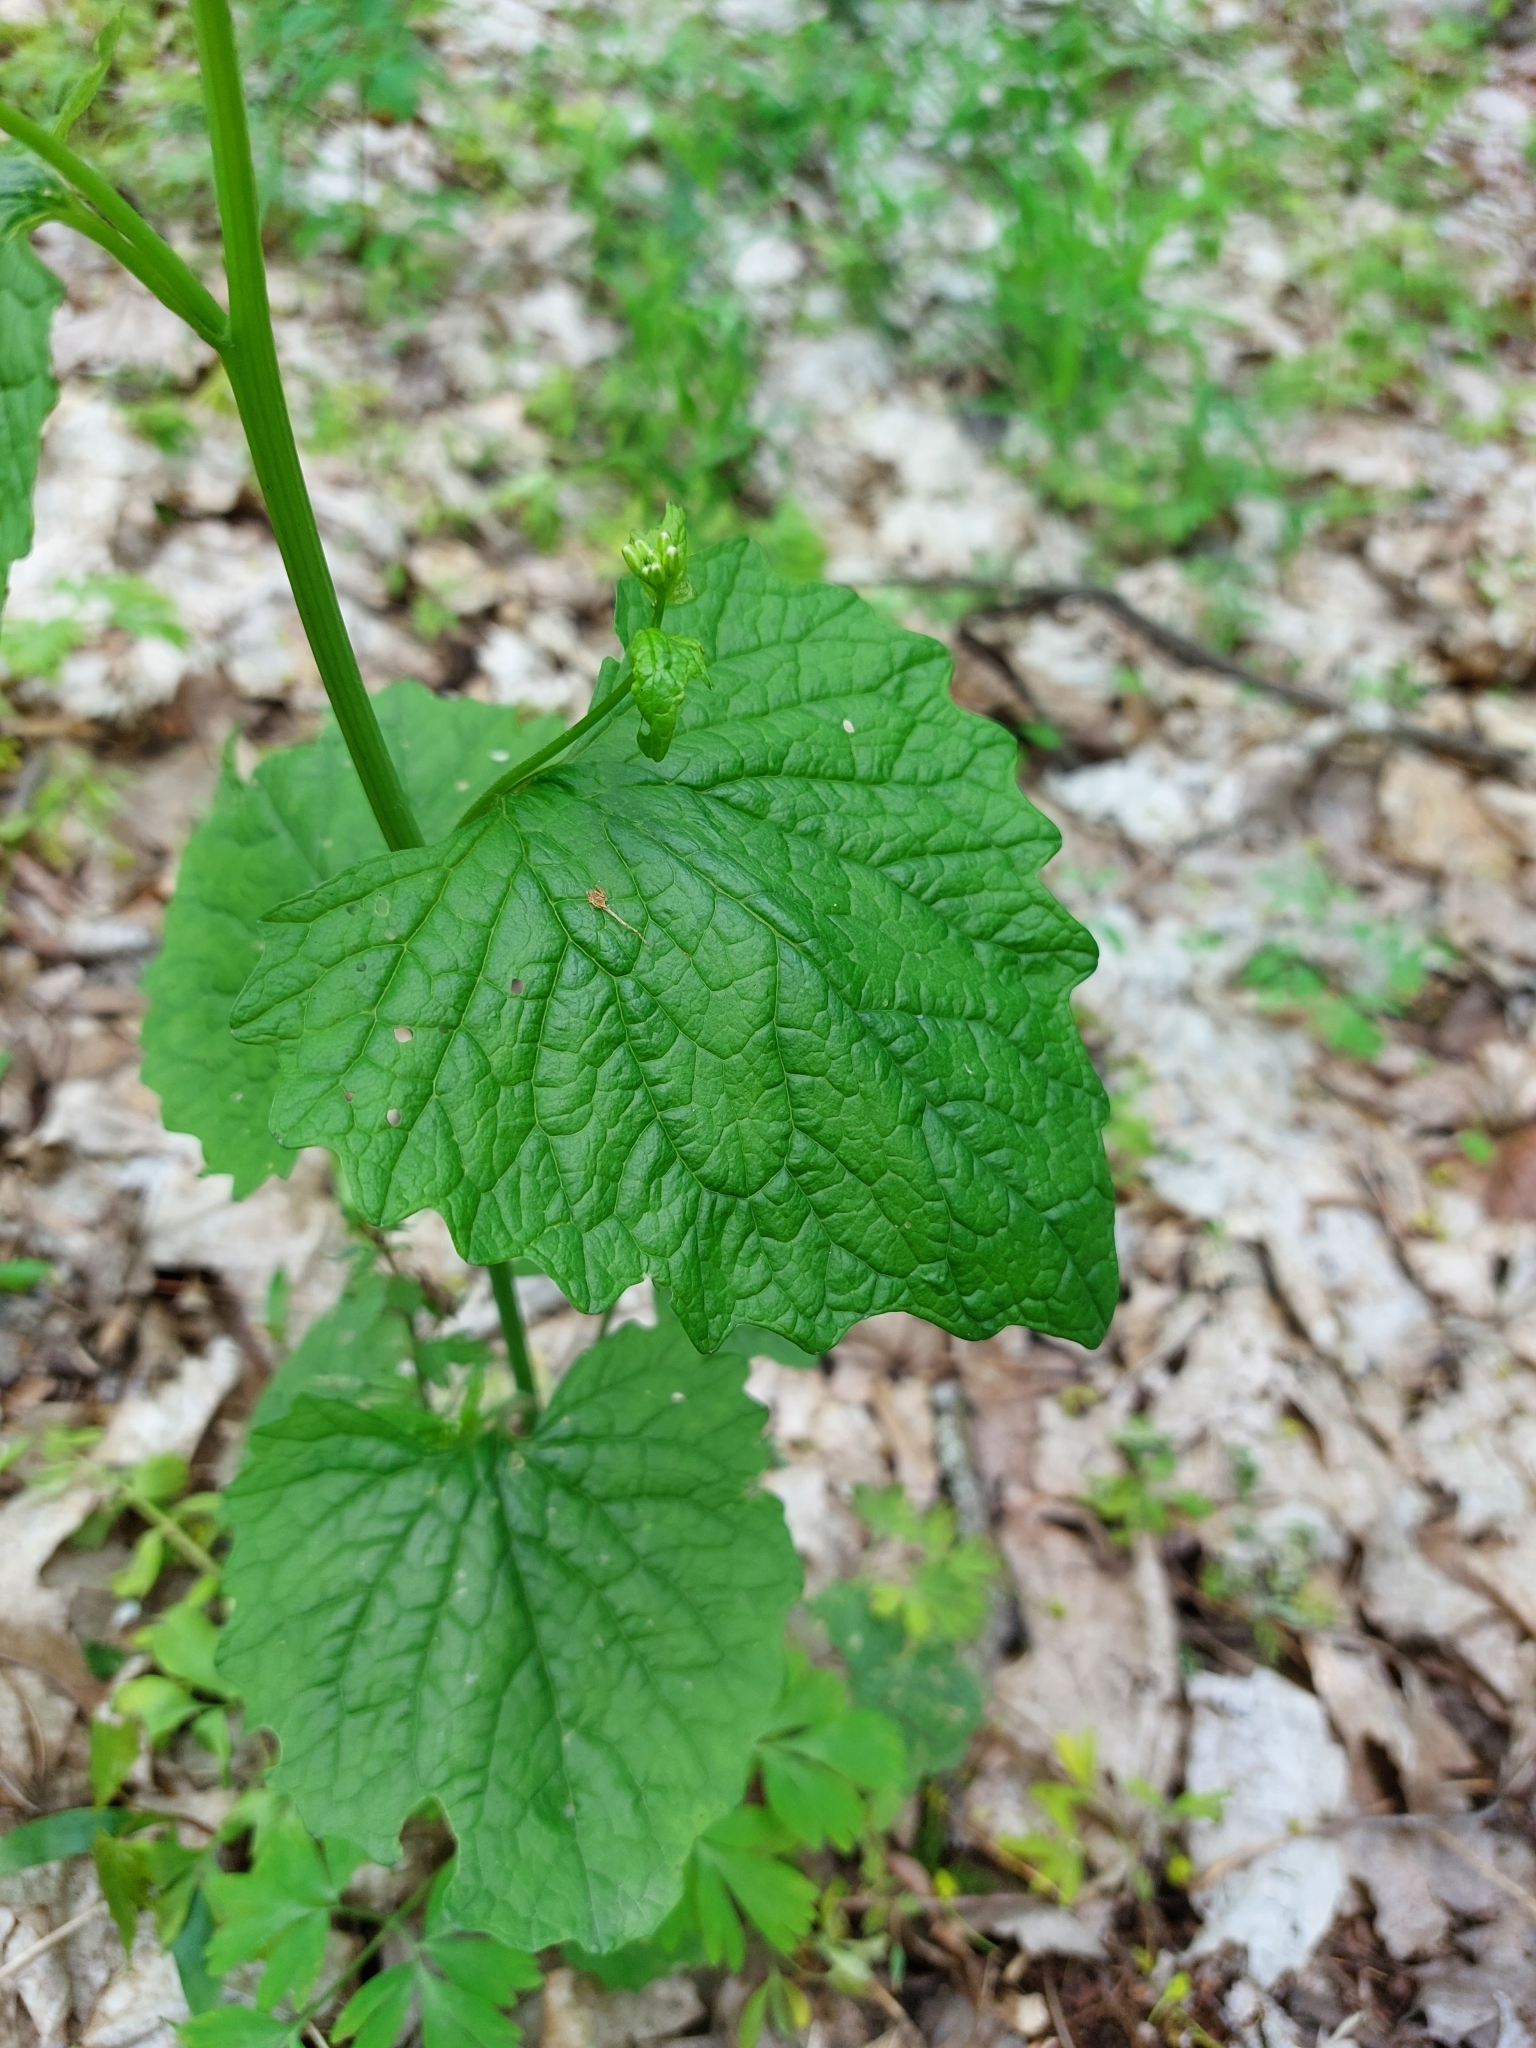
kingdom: Plantae
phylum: Tracheophyta
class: Magnoliopsida
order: Brassicales
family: Brassicaceae
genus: Alliaria
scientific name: Alliaria petiolata
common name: Garlic mustard
